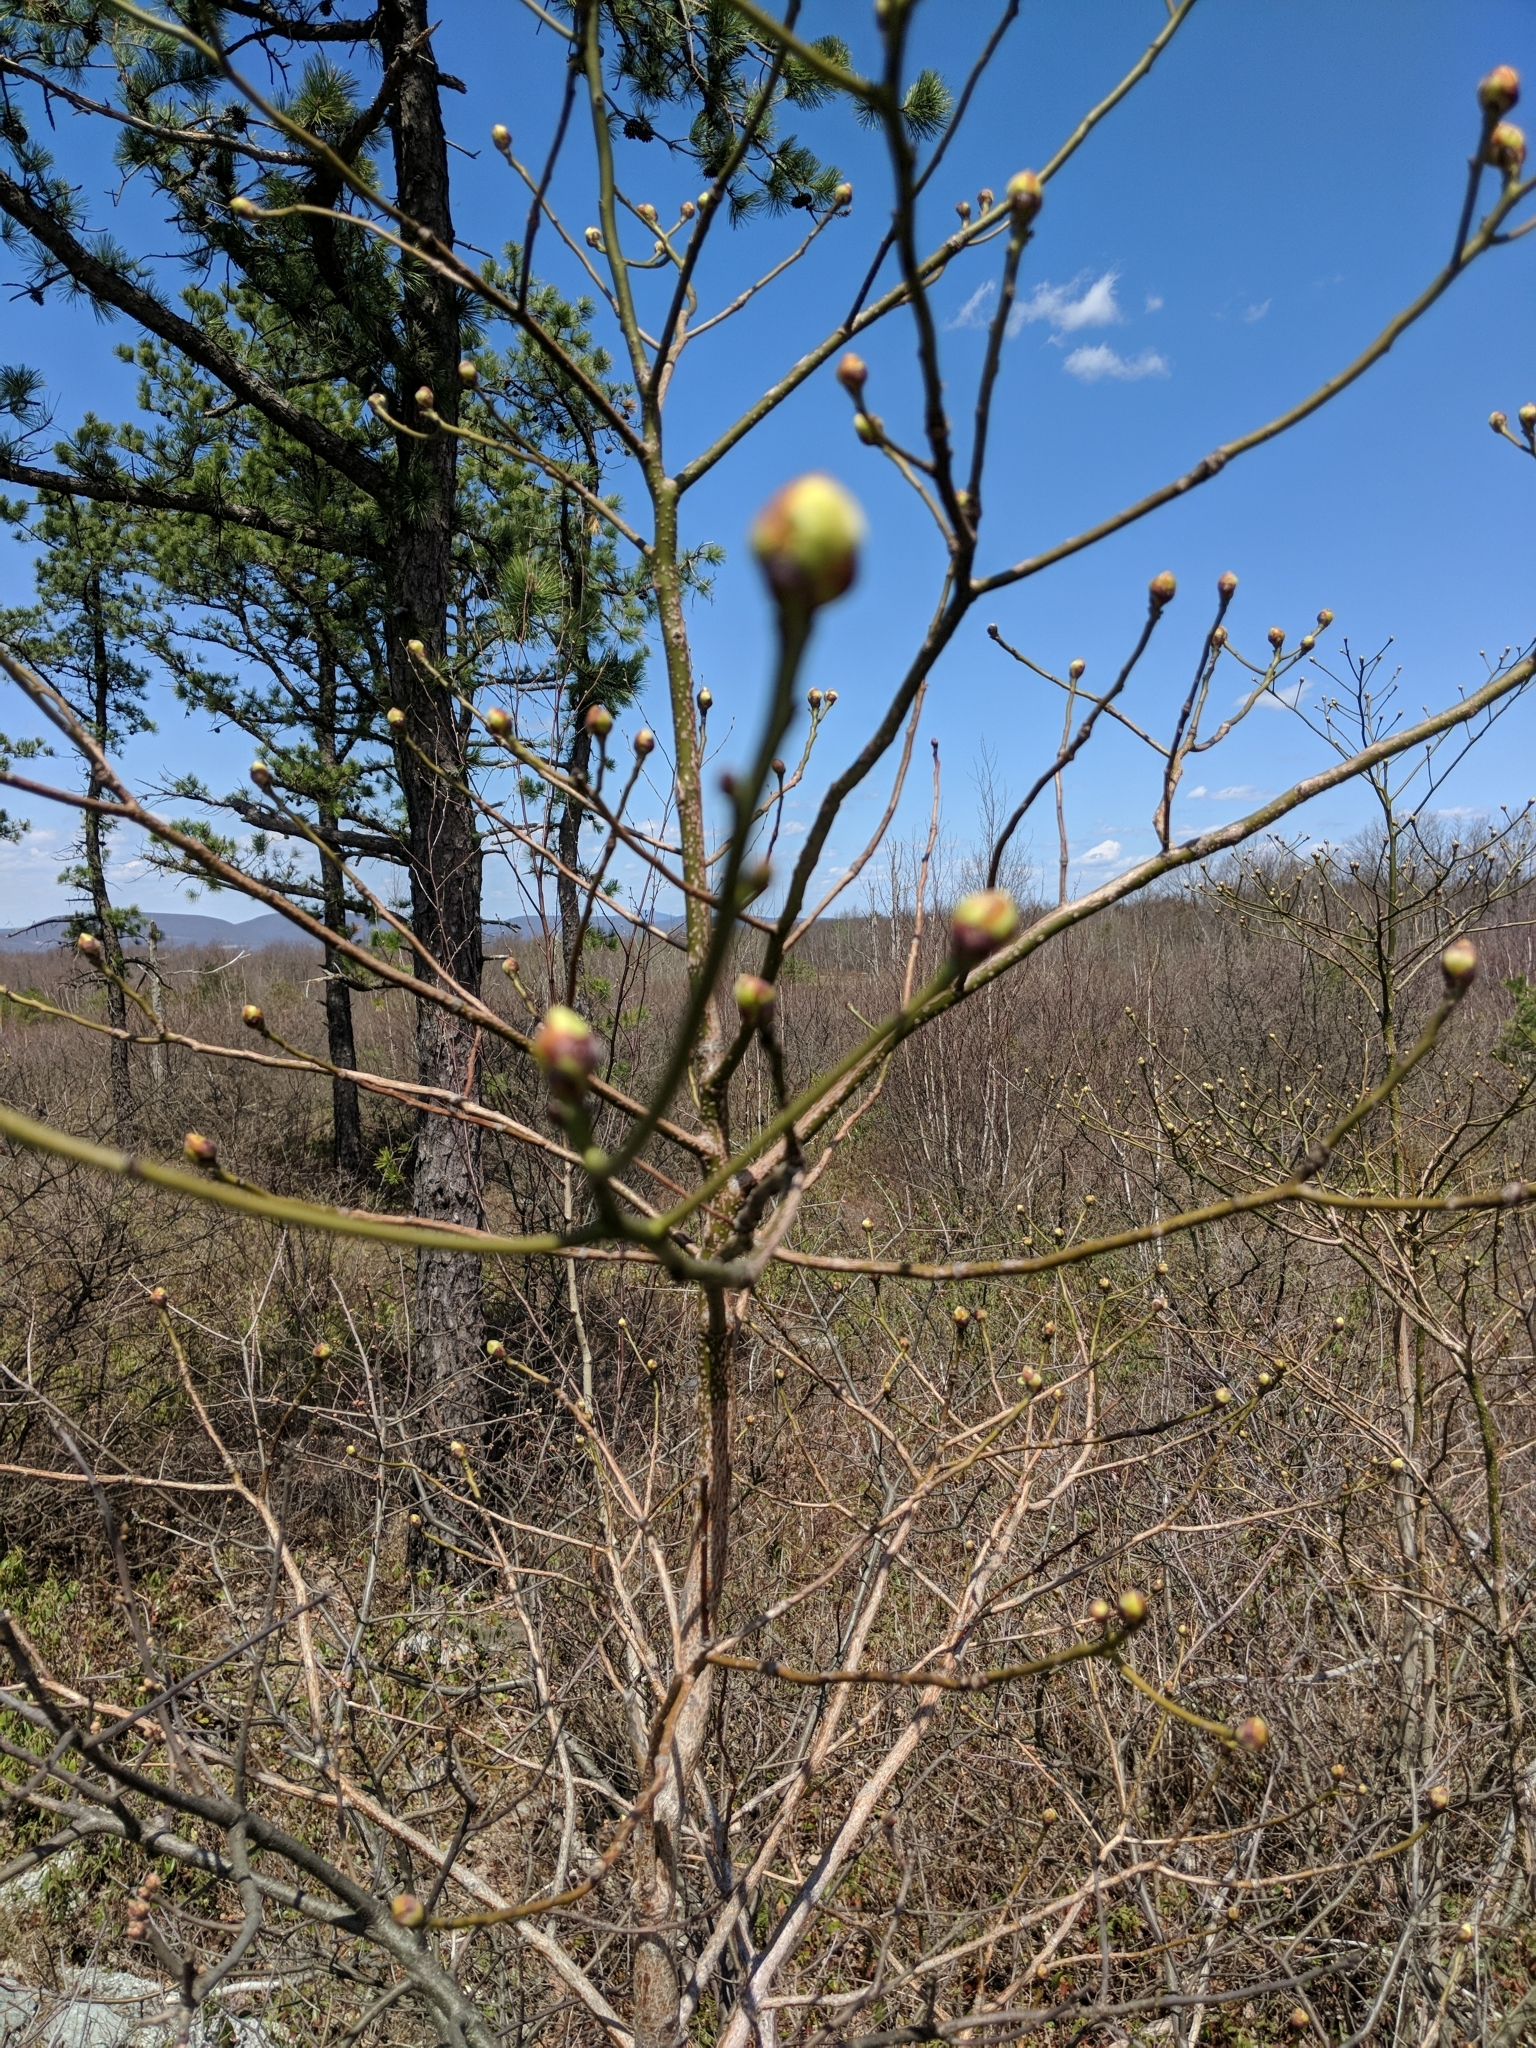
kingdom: Plantae
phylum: Tracheophyta
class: Magnoliopsida
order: Laurales
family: Lauraceae
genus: Sassafras
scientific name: Sassafras albidum
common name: Sassafras
